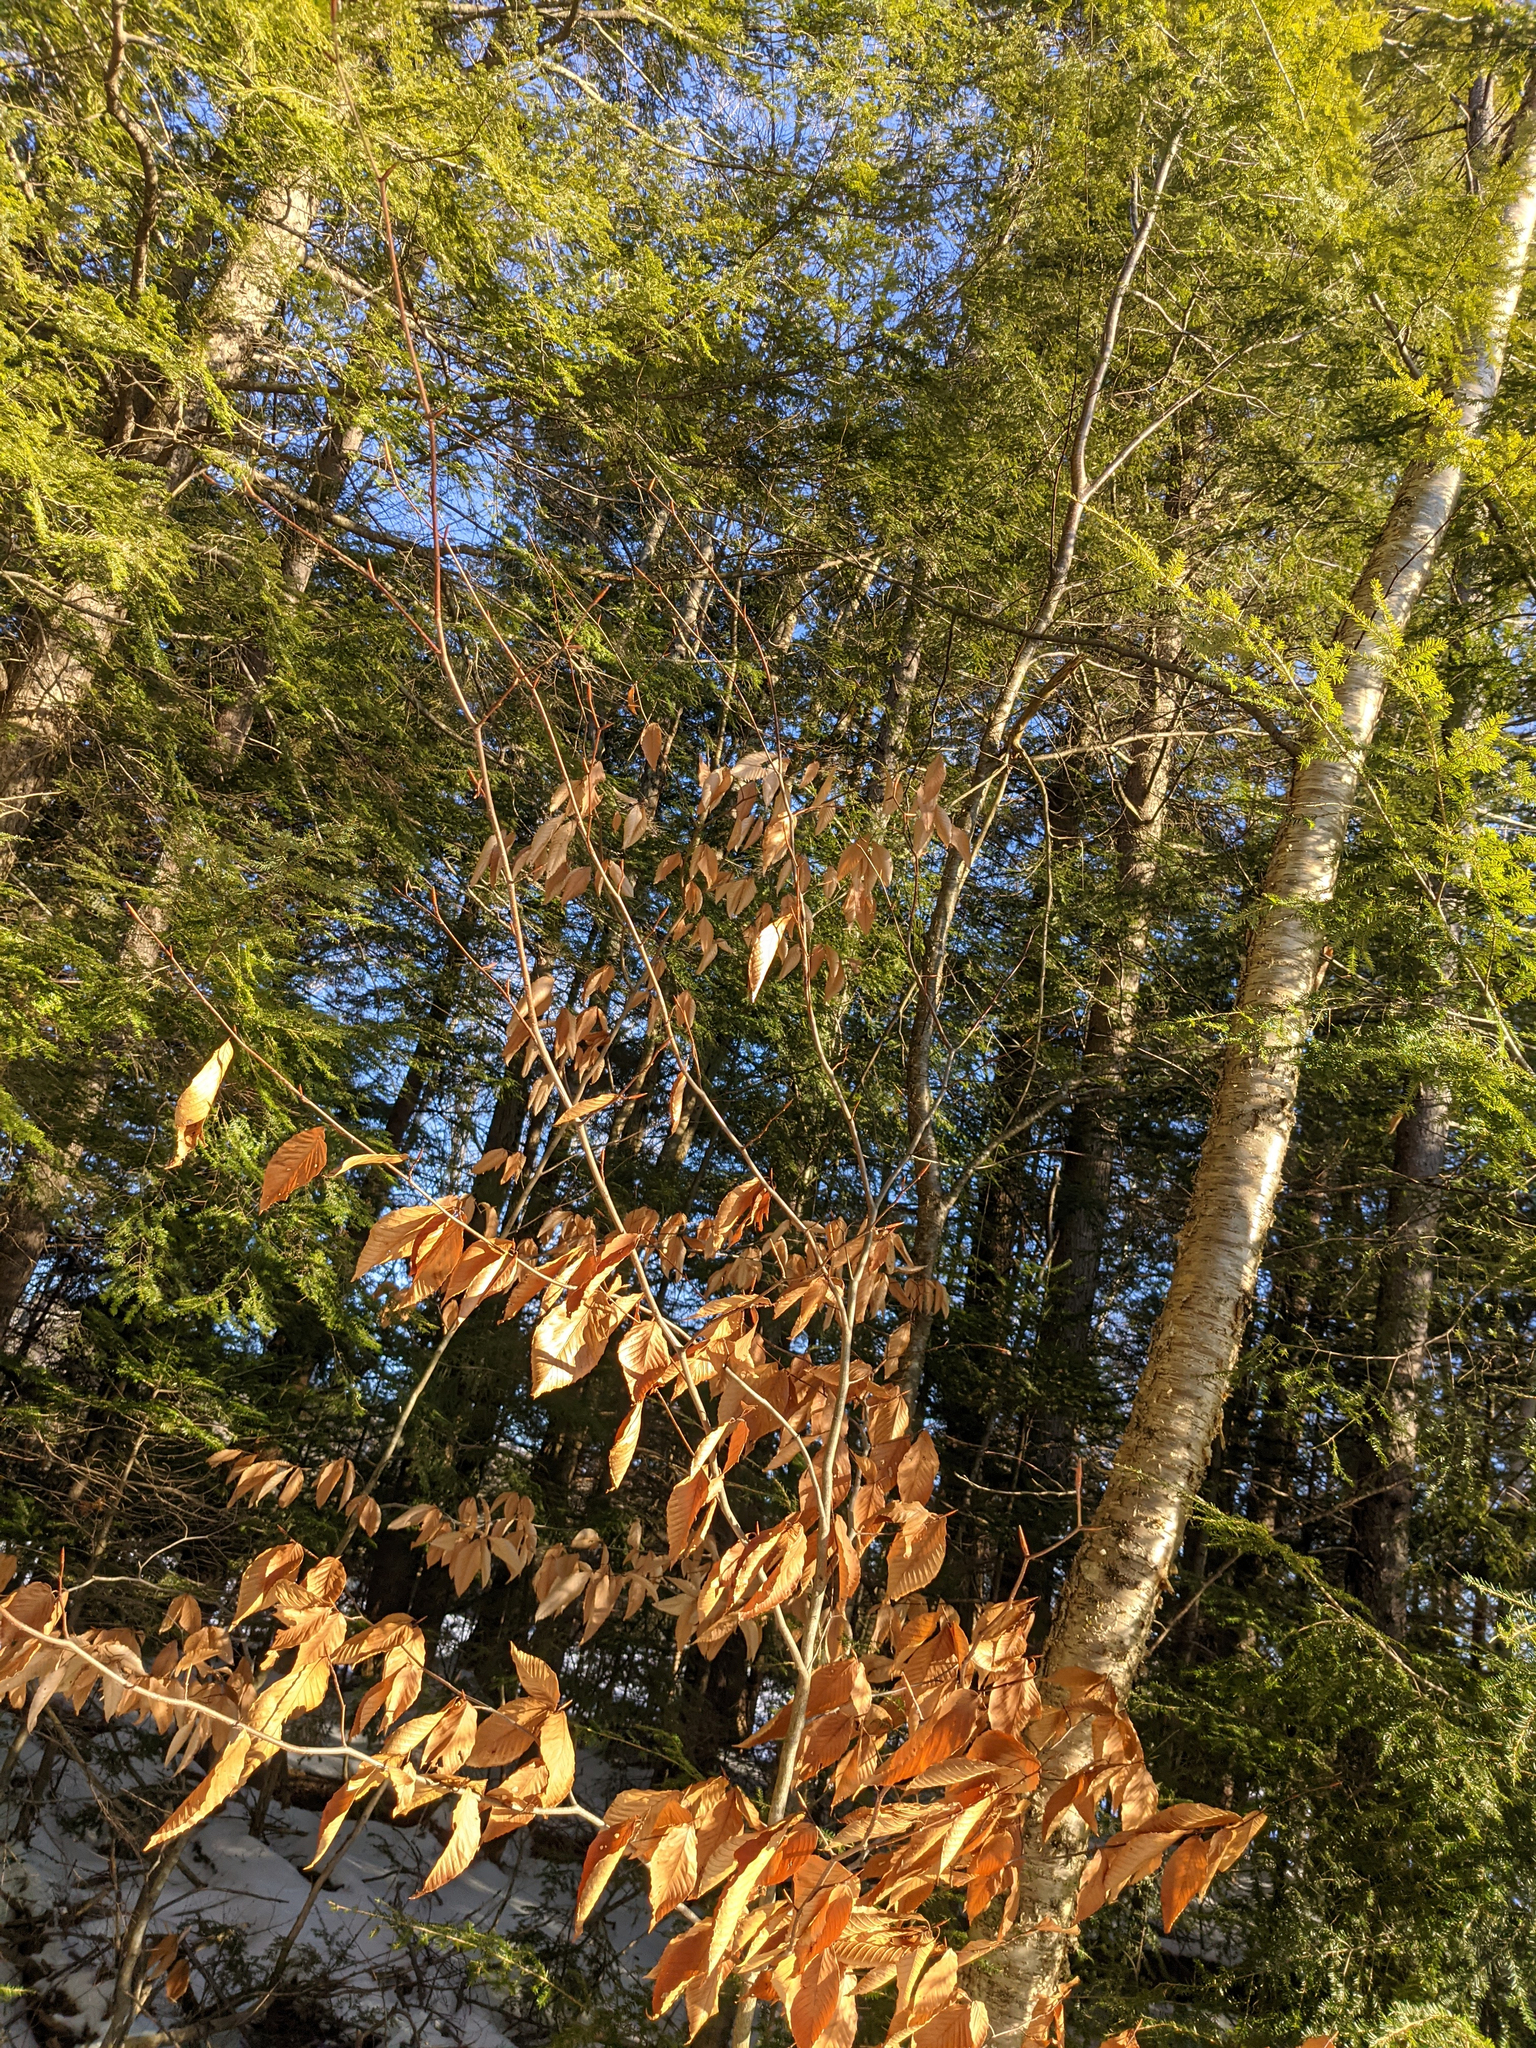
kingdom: Plantae
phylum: Tracheophyta
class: Magnoliopsida
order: Fagales
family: Betulaceae
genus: Betula
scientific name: Betula alleghaniensis
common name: Yellow birch
